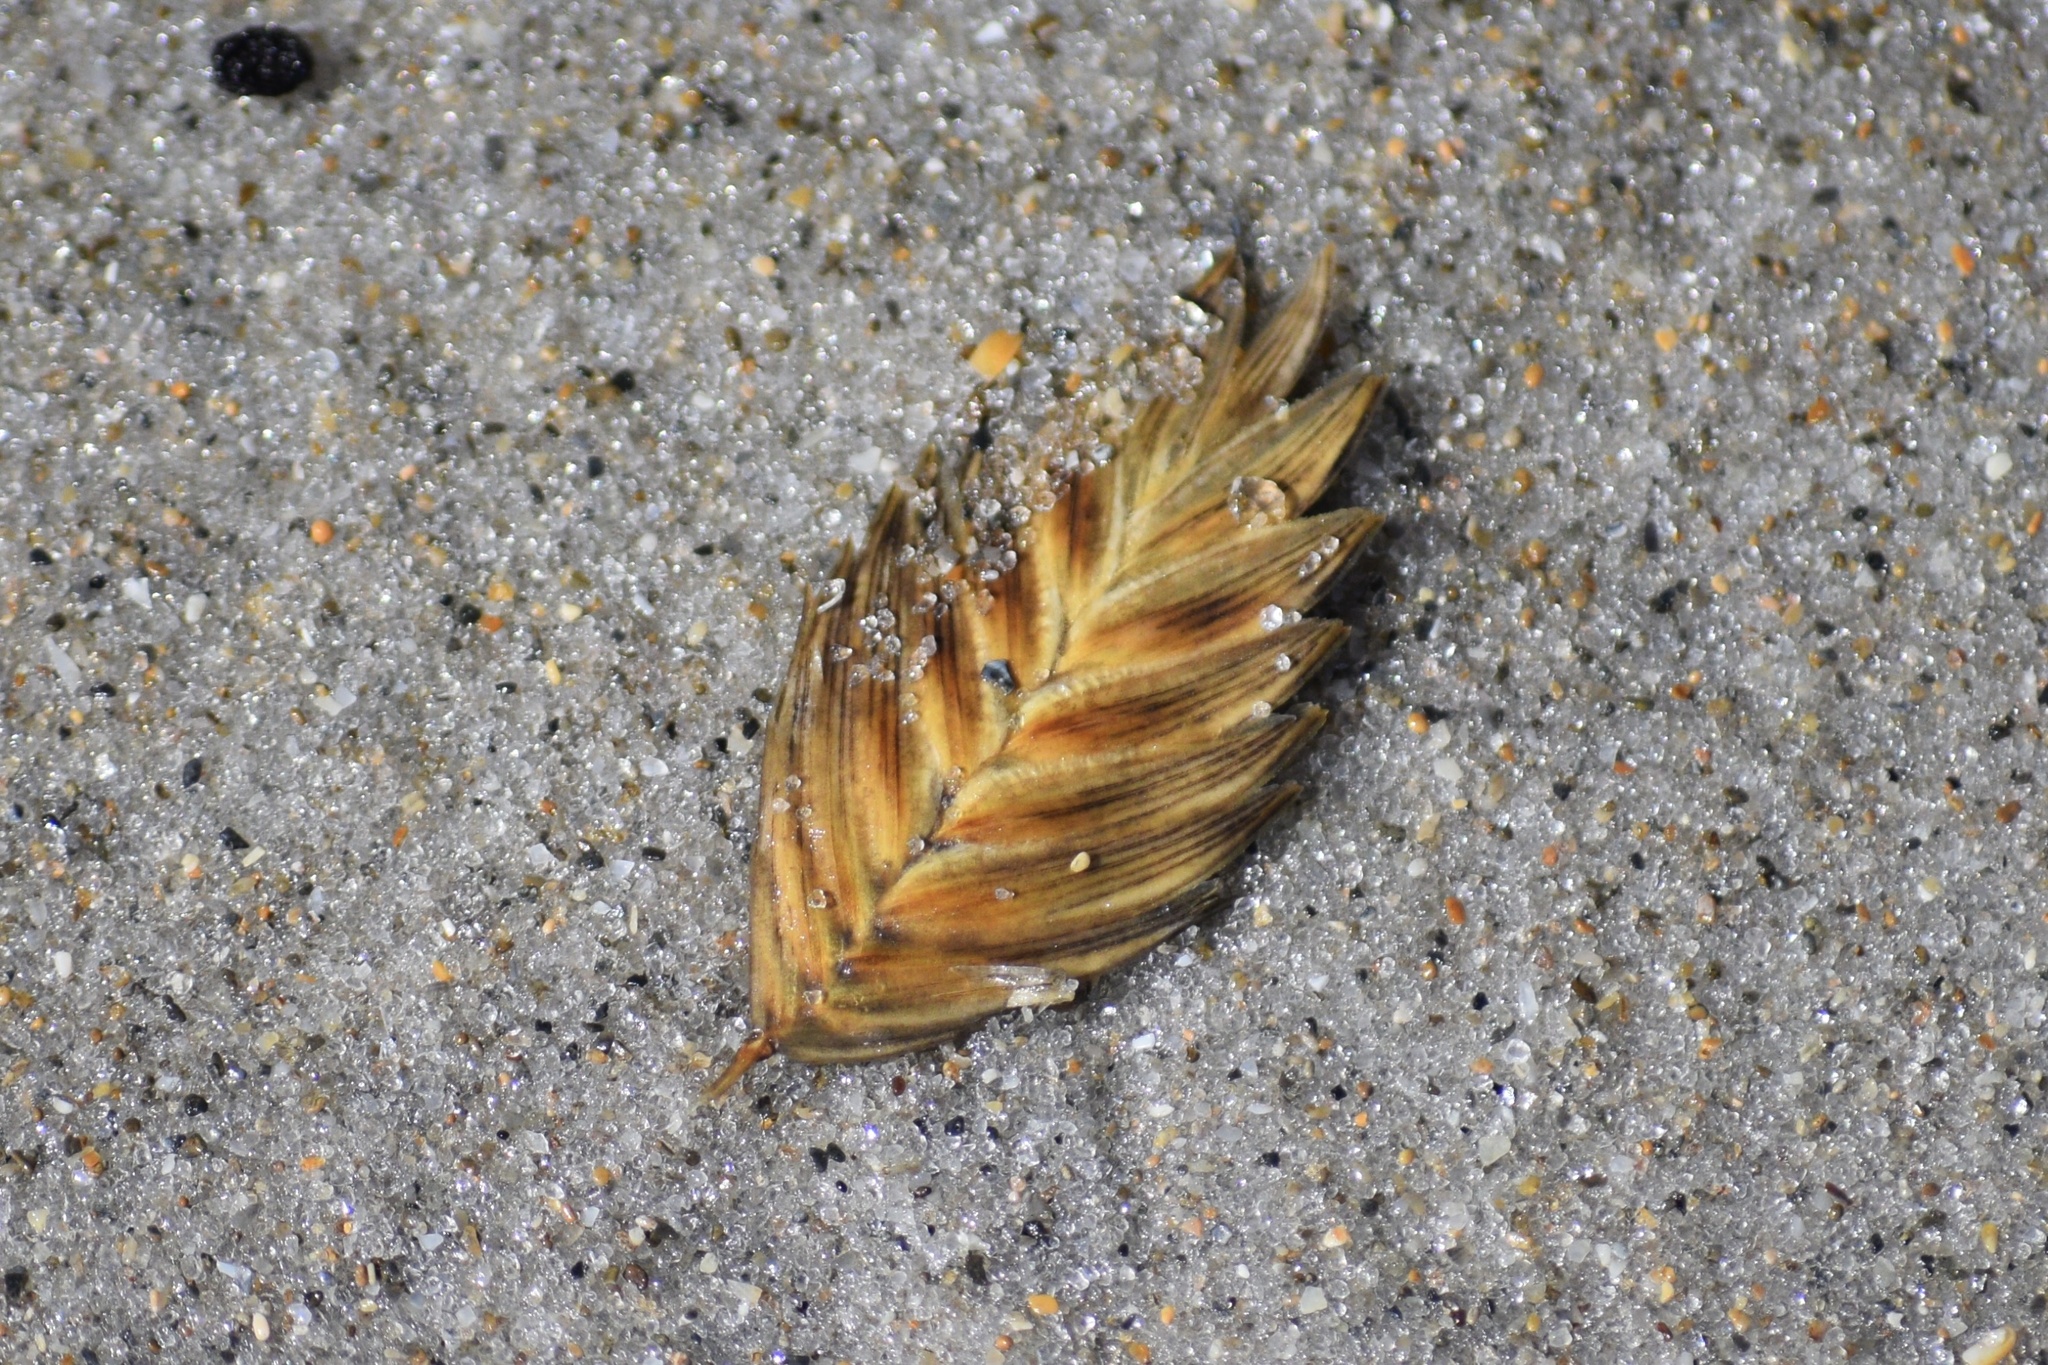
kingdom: Plantae
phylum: Tracheophyta
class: Liliopsida
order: Poales
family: Poaceae
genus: Uniola
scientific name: Uniola paniculata
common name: Seaside-oats
